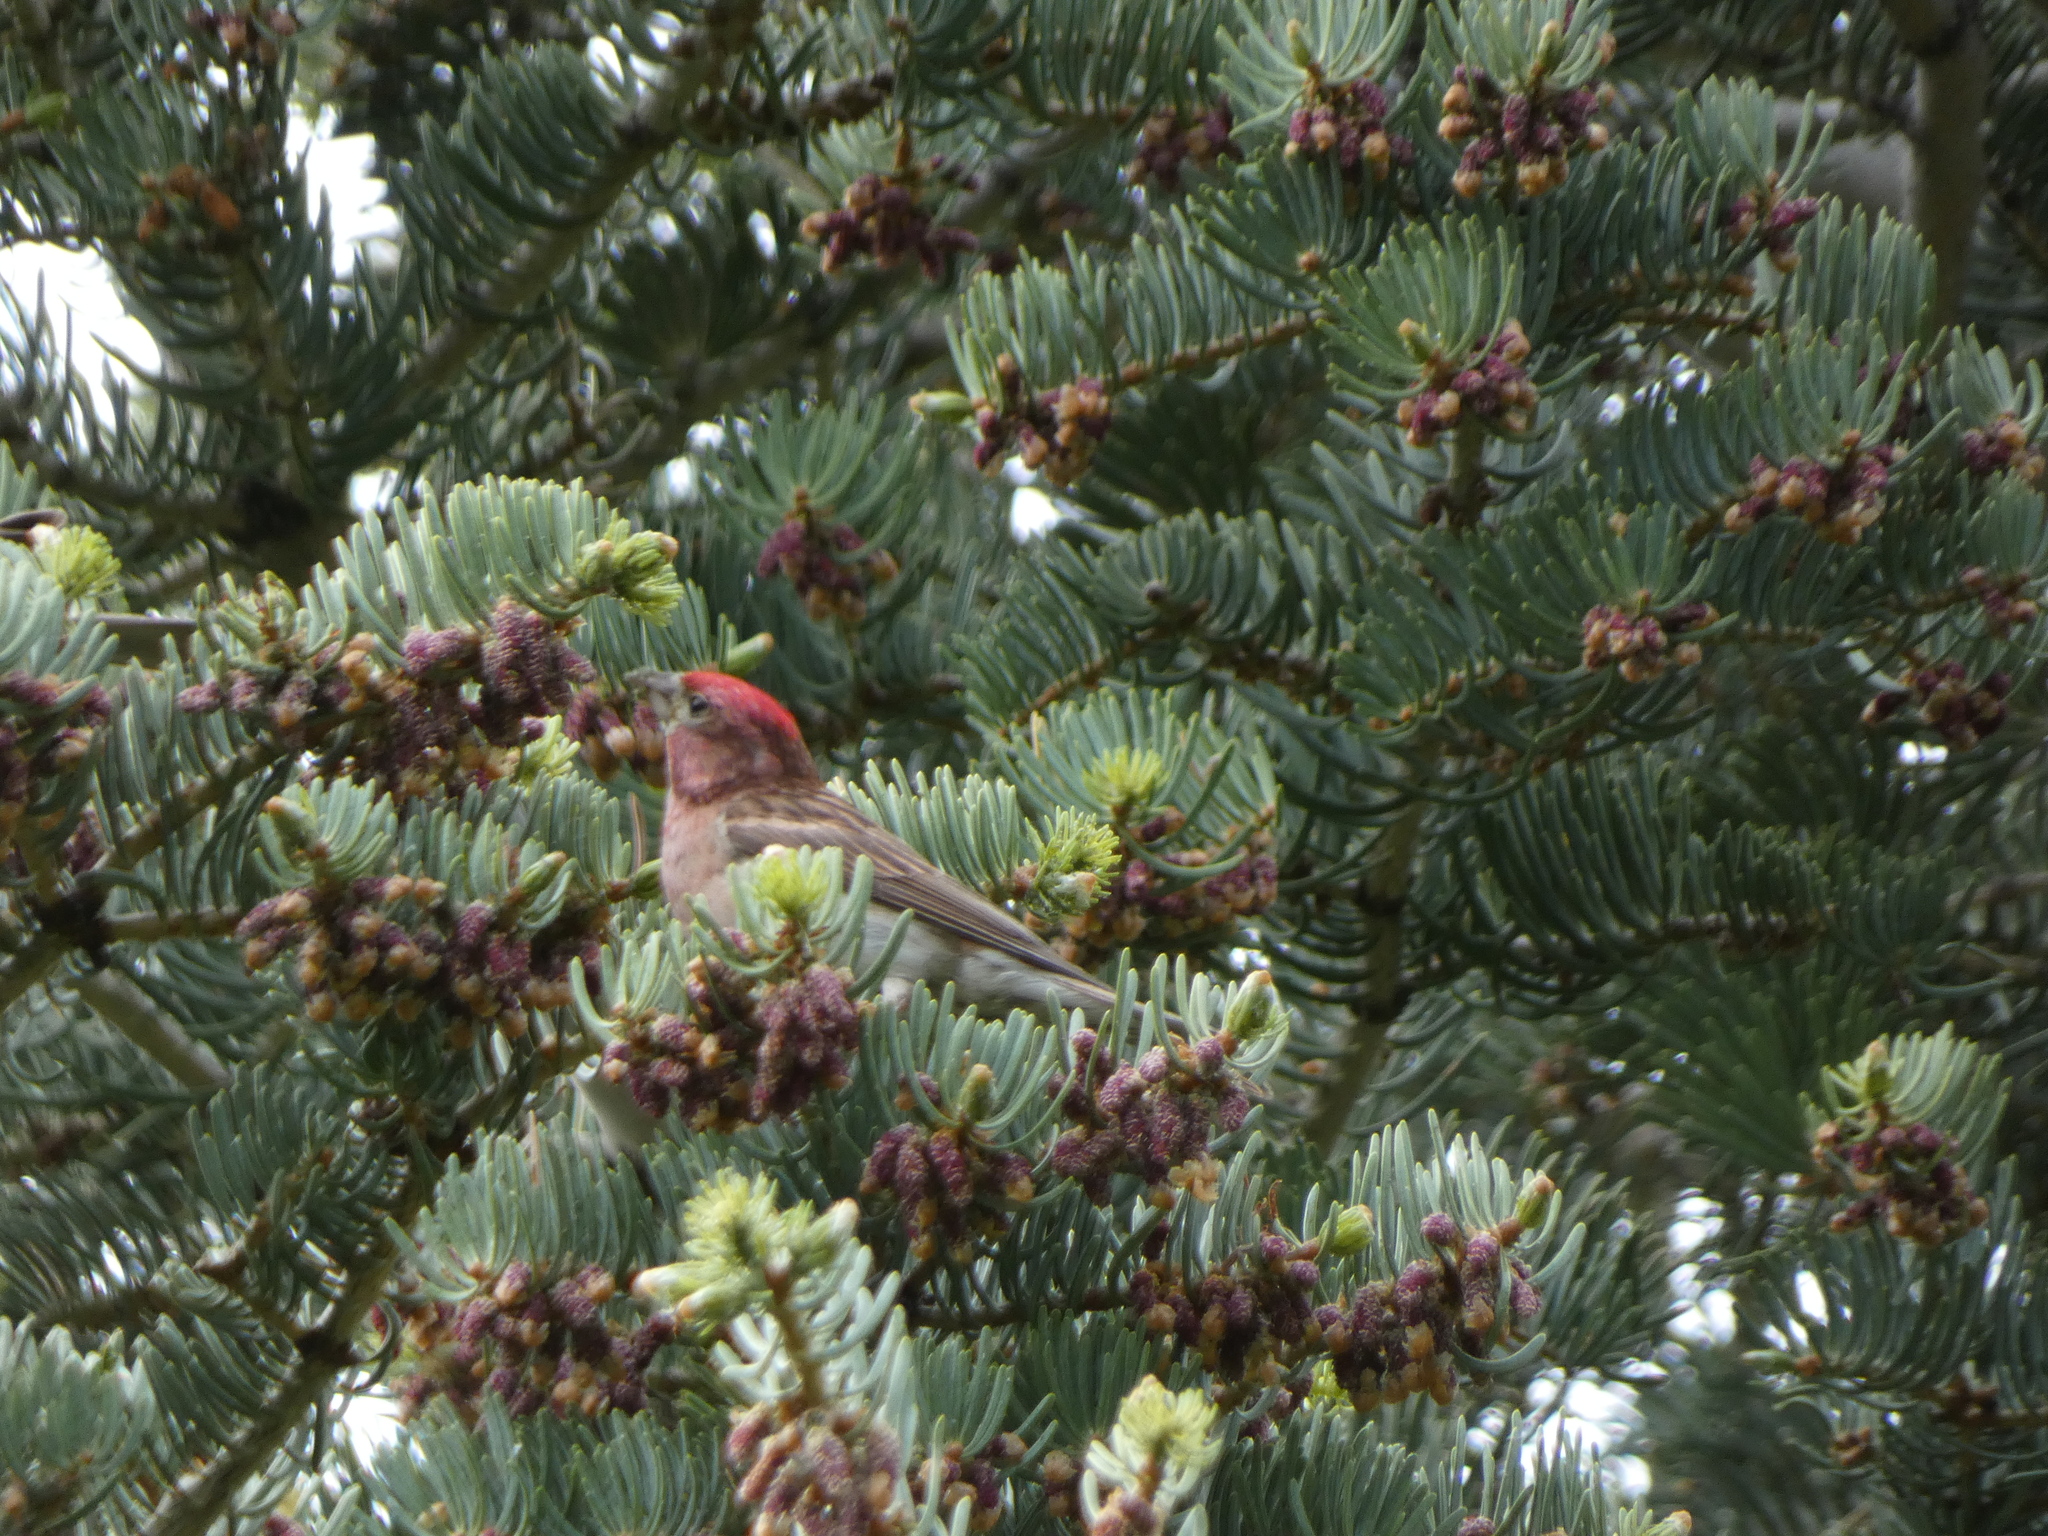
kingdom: Animalia
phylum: Chordata
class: Aves
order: Passeriformes
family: Fringillidae
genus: Haemorhous
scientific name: Haemorhous cassinii
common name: Cassin's finch
